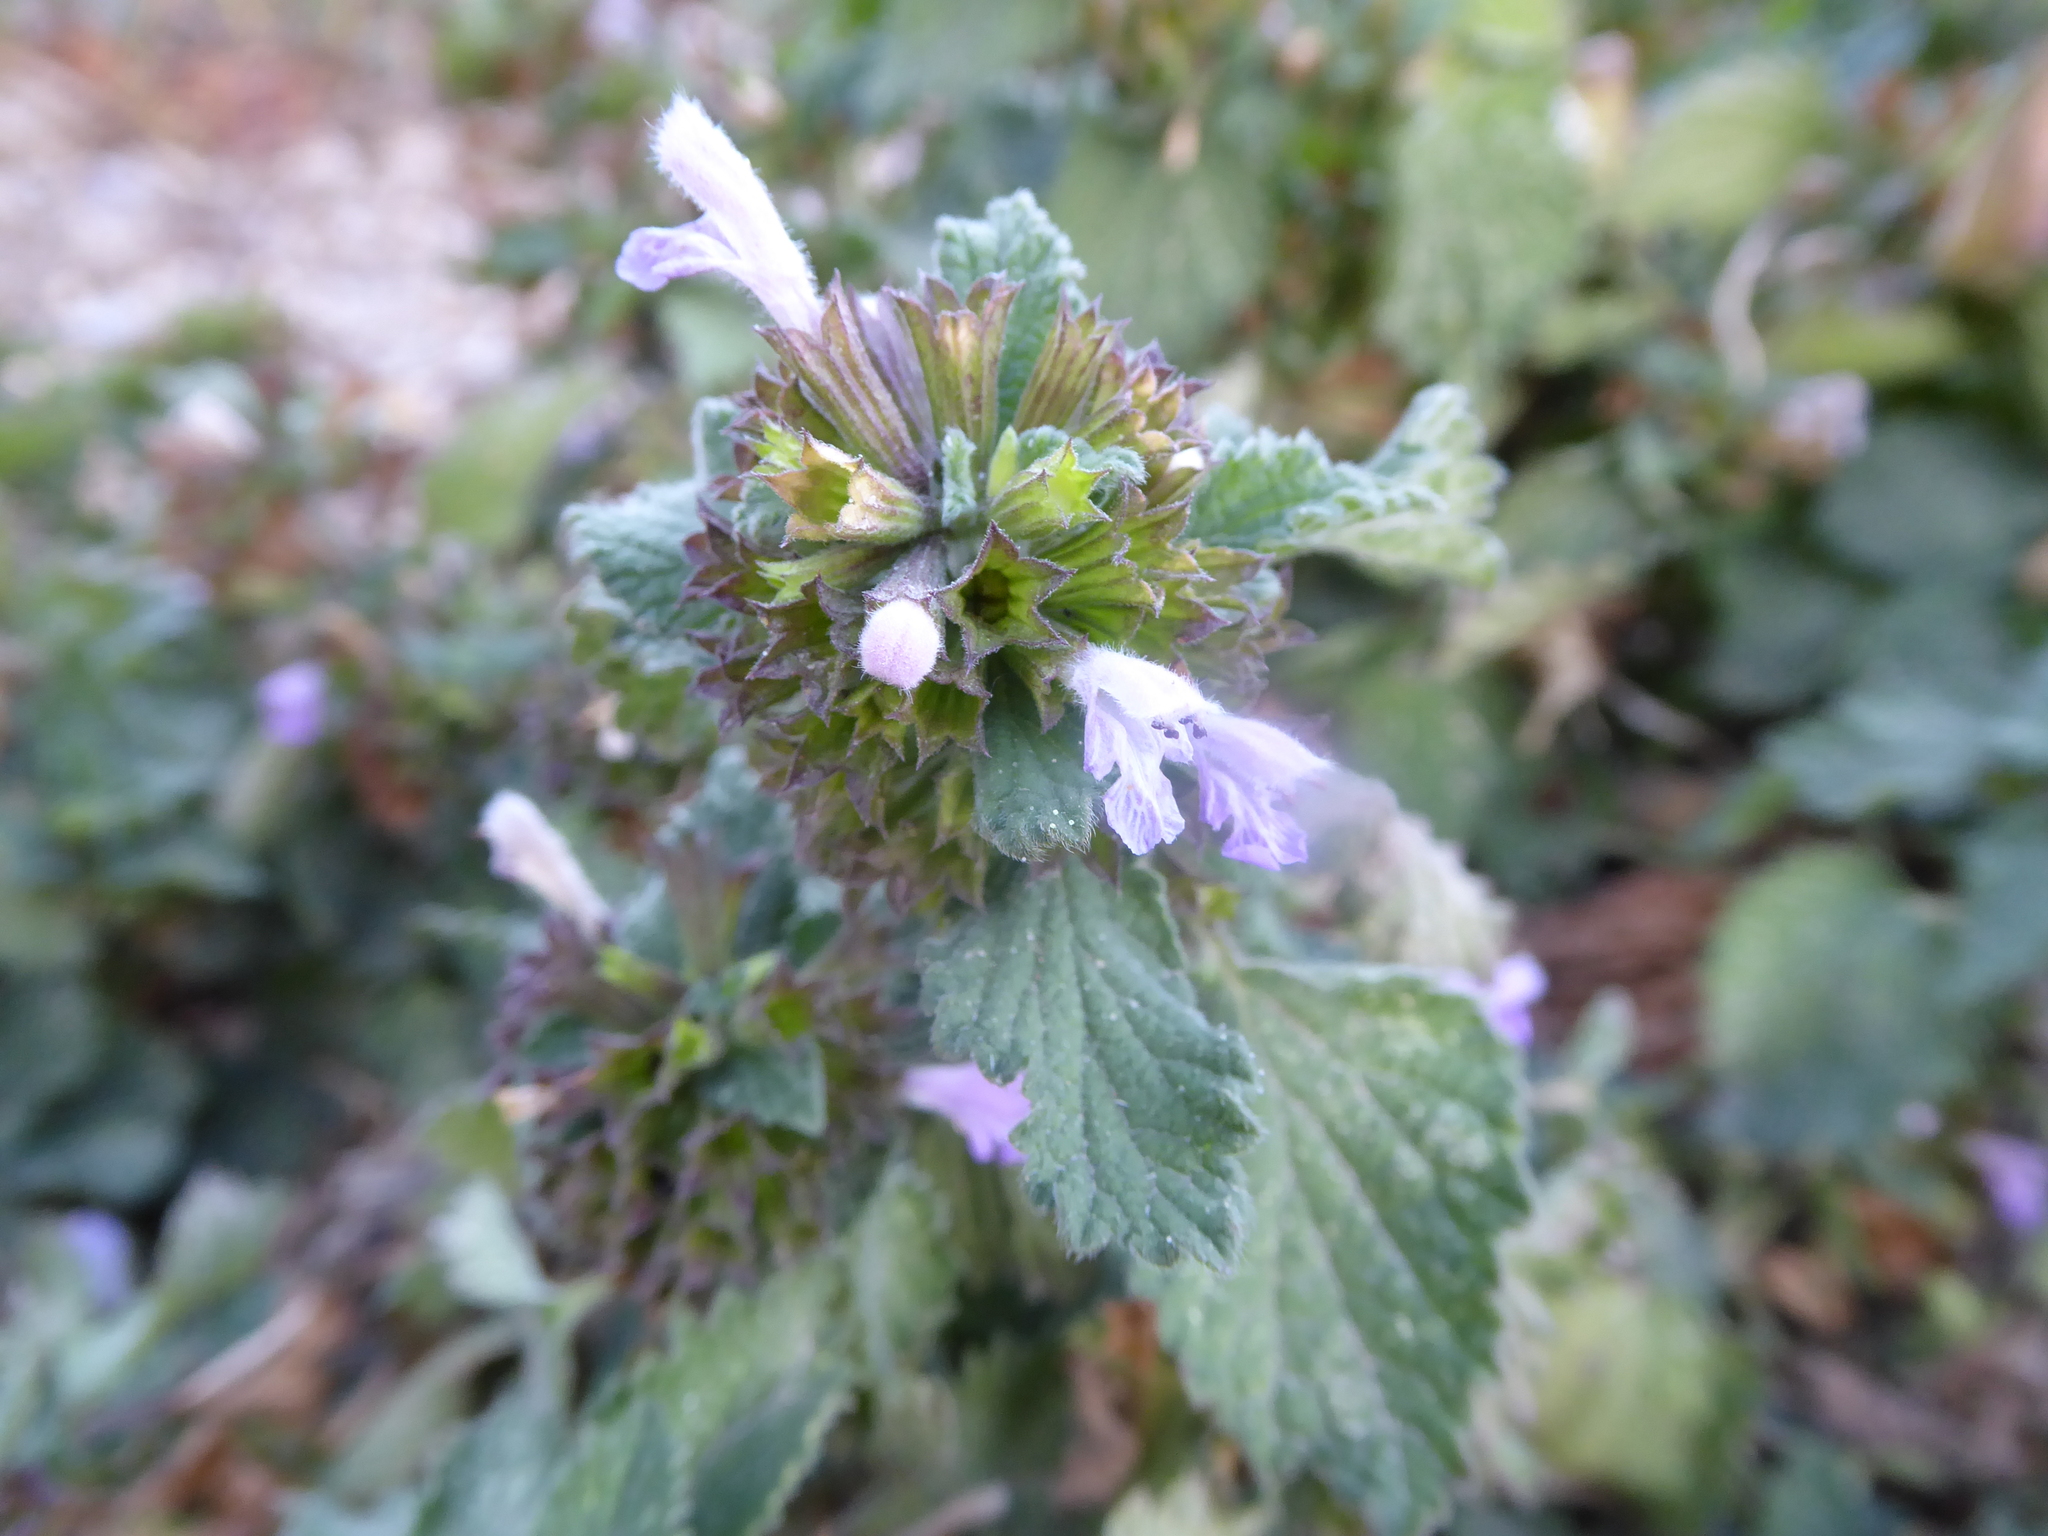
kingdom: Plantae
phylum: Tracheophyta
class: Magnoliopsida
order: Lamiales
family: Lamiaceae
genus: Ballota
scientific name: Ballota nigra
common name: Black horehound
